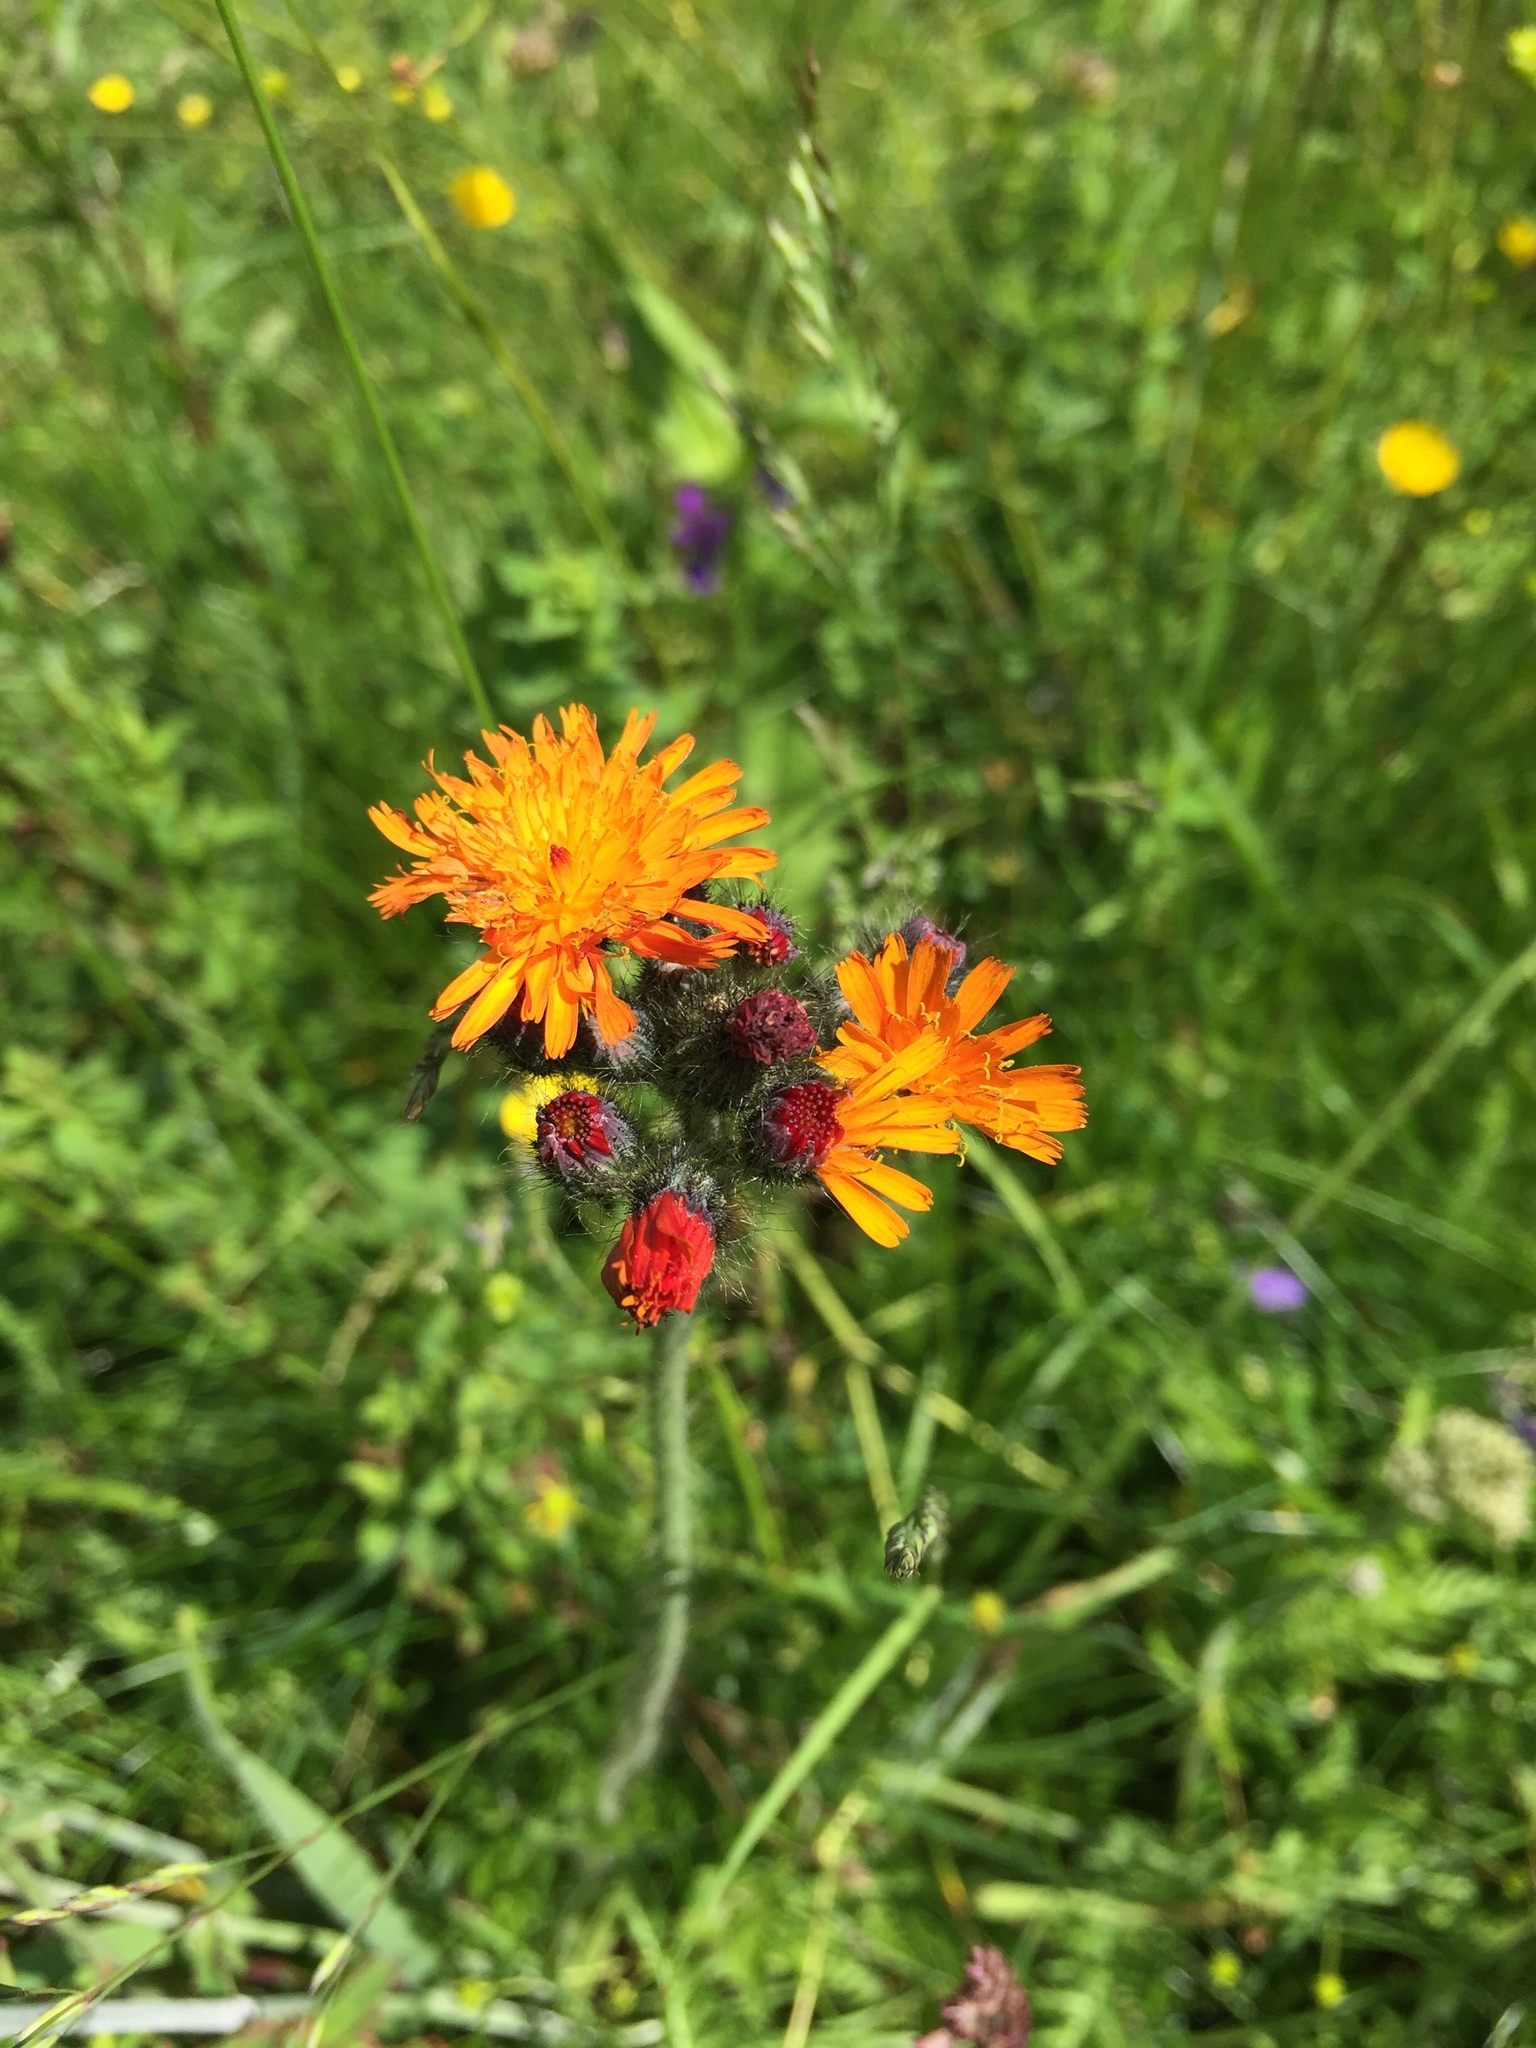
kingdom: Plantae
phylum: Tracheophyta
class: Magnoliopsida
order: Asterales
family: Asteraceae
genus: Pilosella
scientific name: Pilosella aurantiaca
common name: Fox-and-cubs
